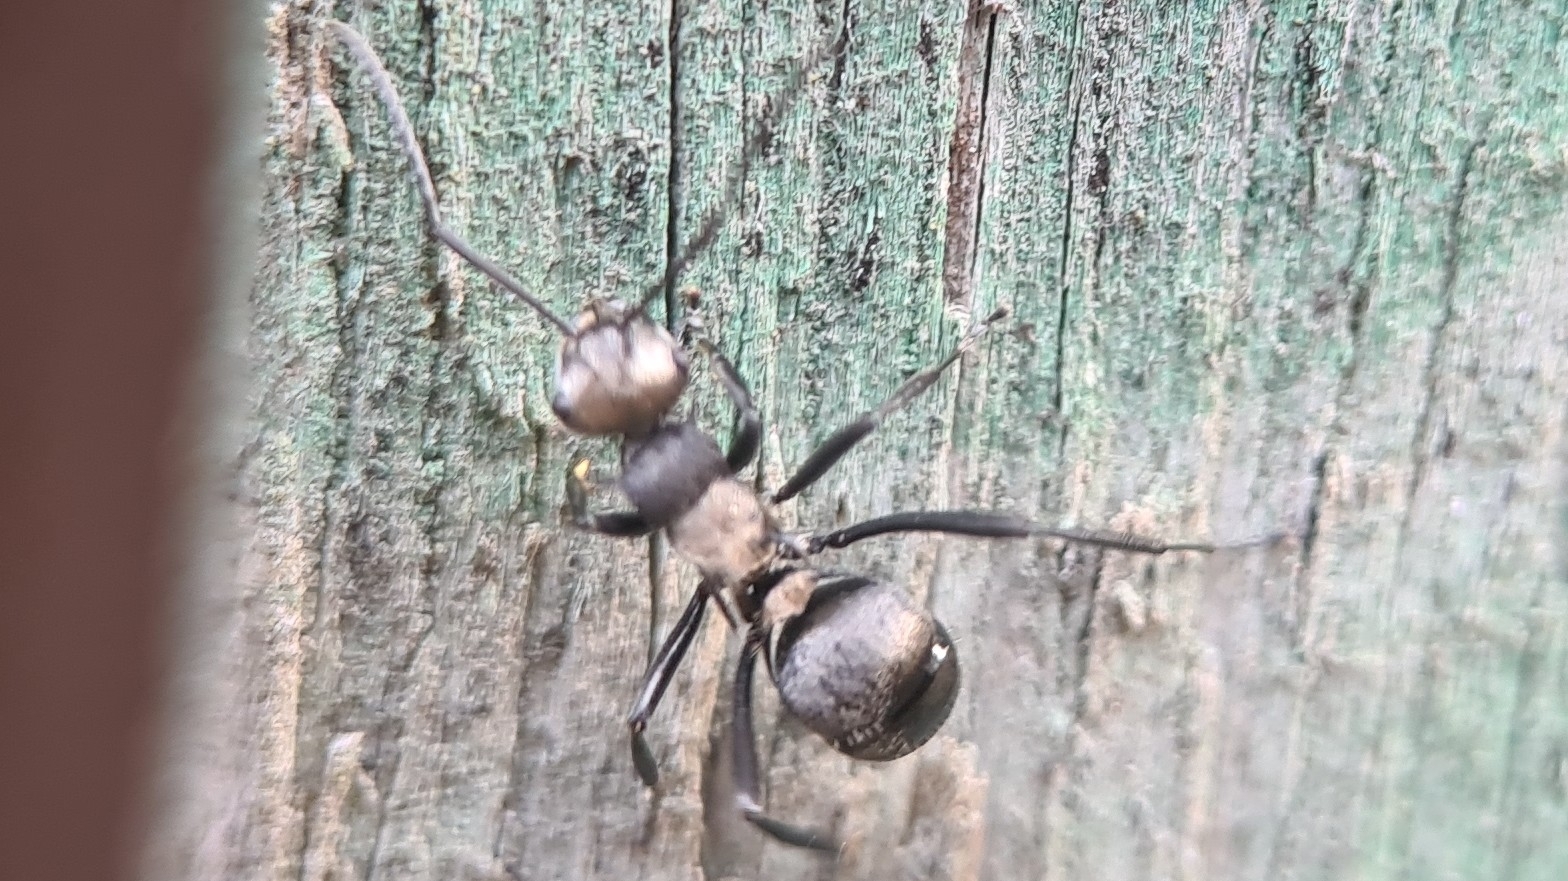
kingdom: Animalia
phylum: Arthropoda
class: Insecta
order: Hymenoptera
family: Formicidae
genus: Polyrhachis
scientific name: Polyrhachis daemeli
